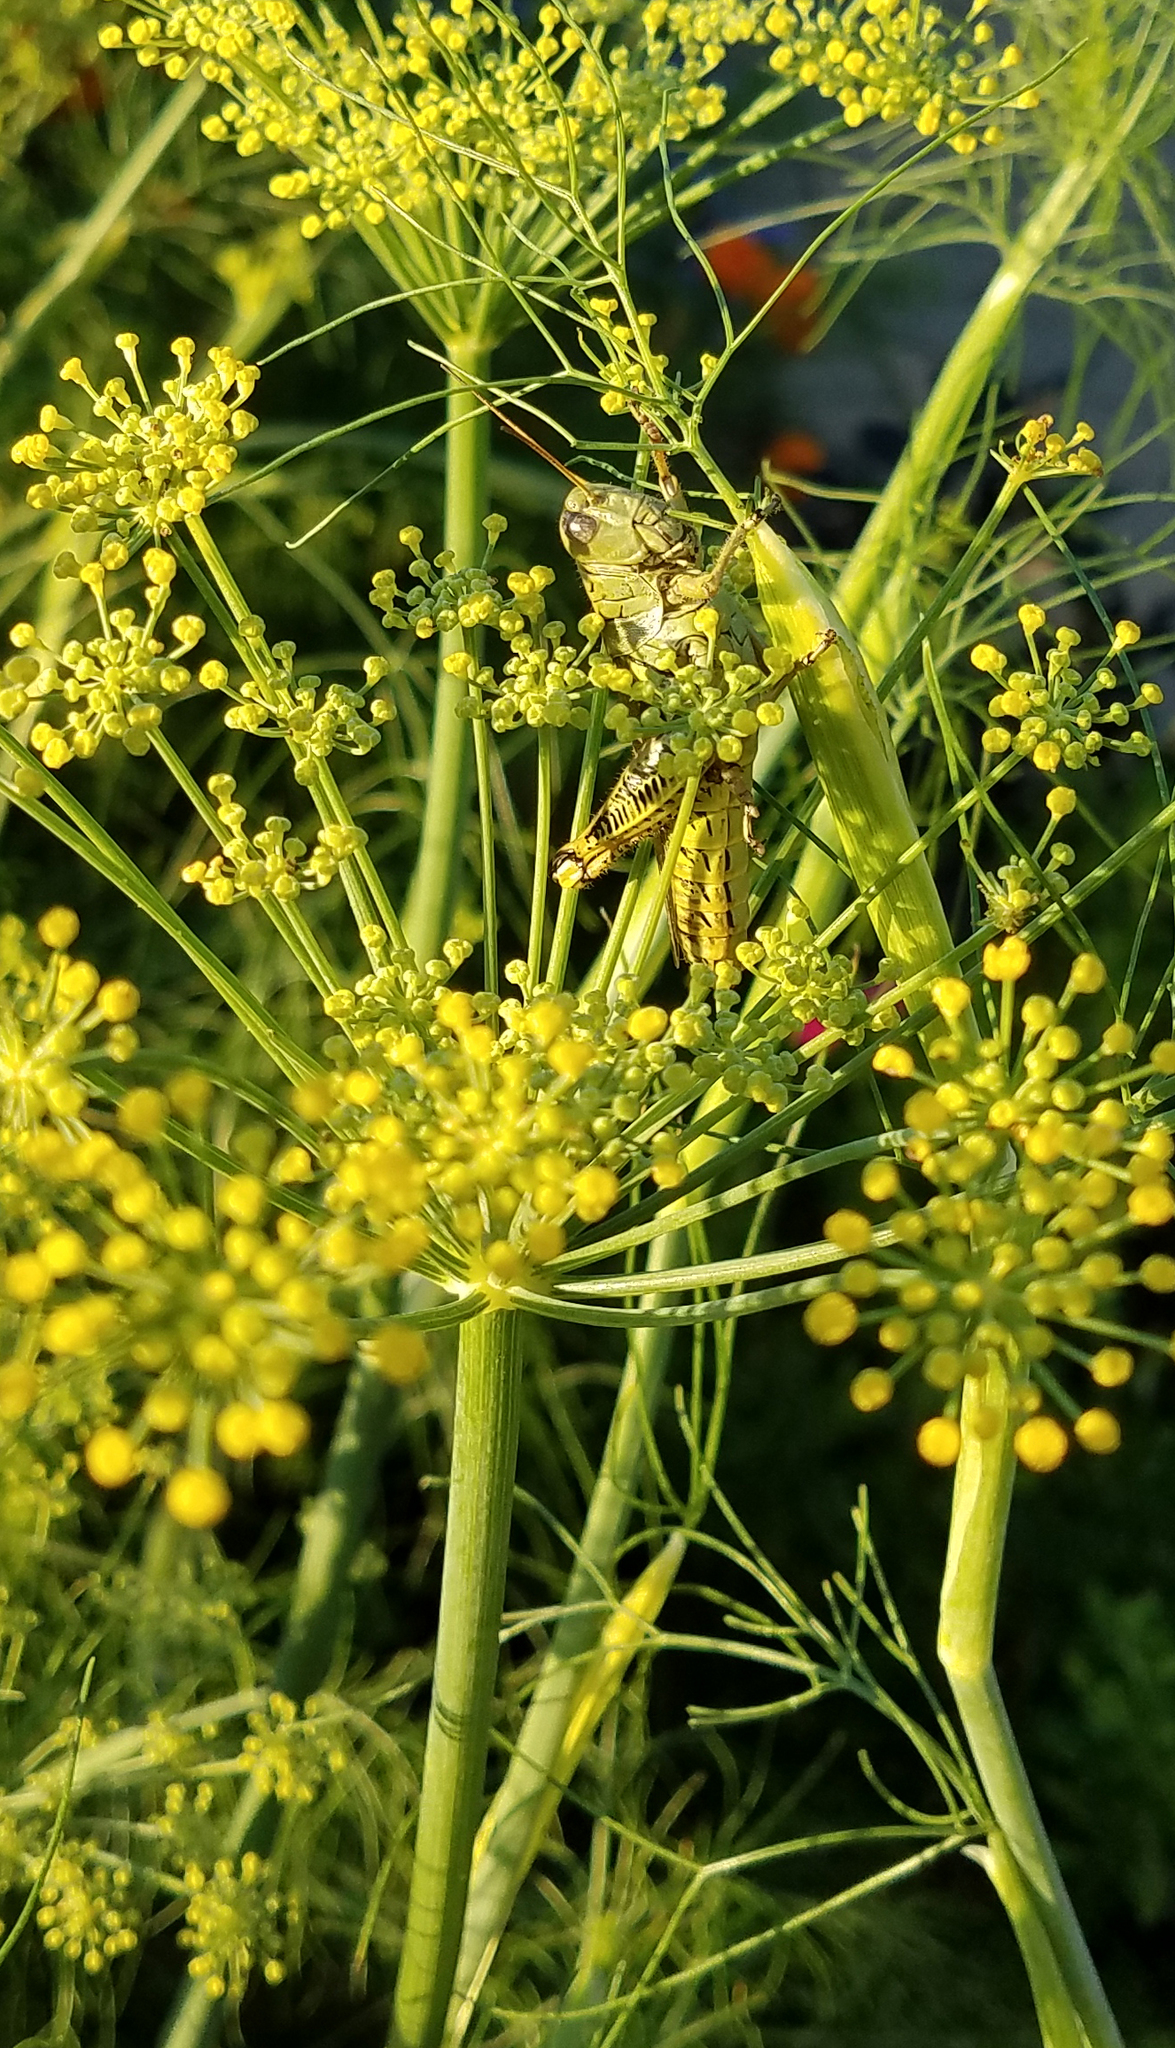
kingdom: Animalia
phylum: Arthropoda
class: Insecta
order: Orthoptera
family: Acrididae
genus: Melanoplus
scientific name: Melanoplus differentialis
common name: Differential grasshopper
